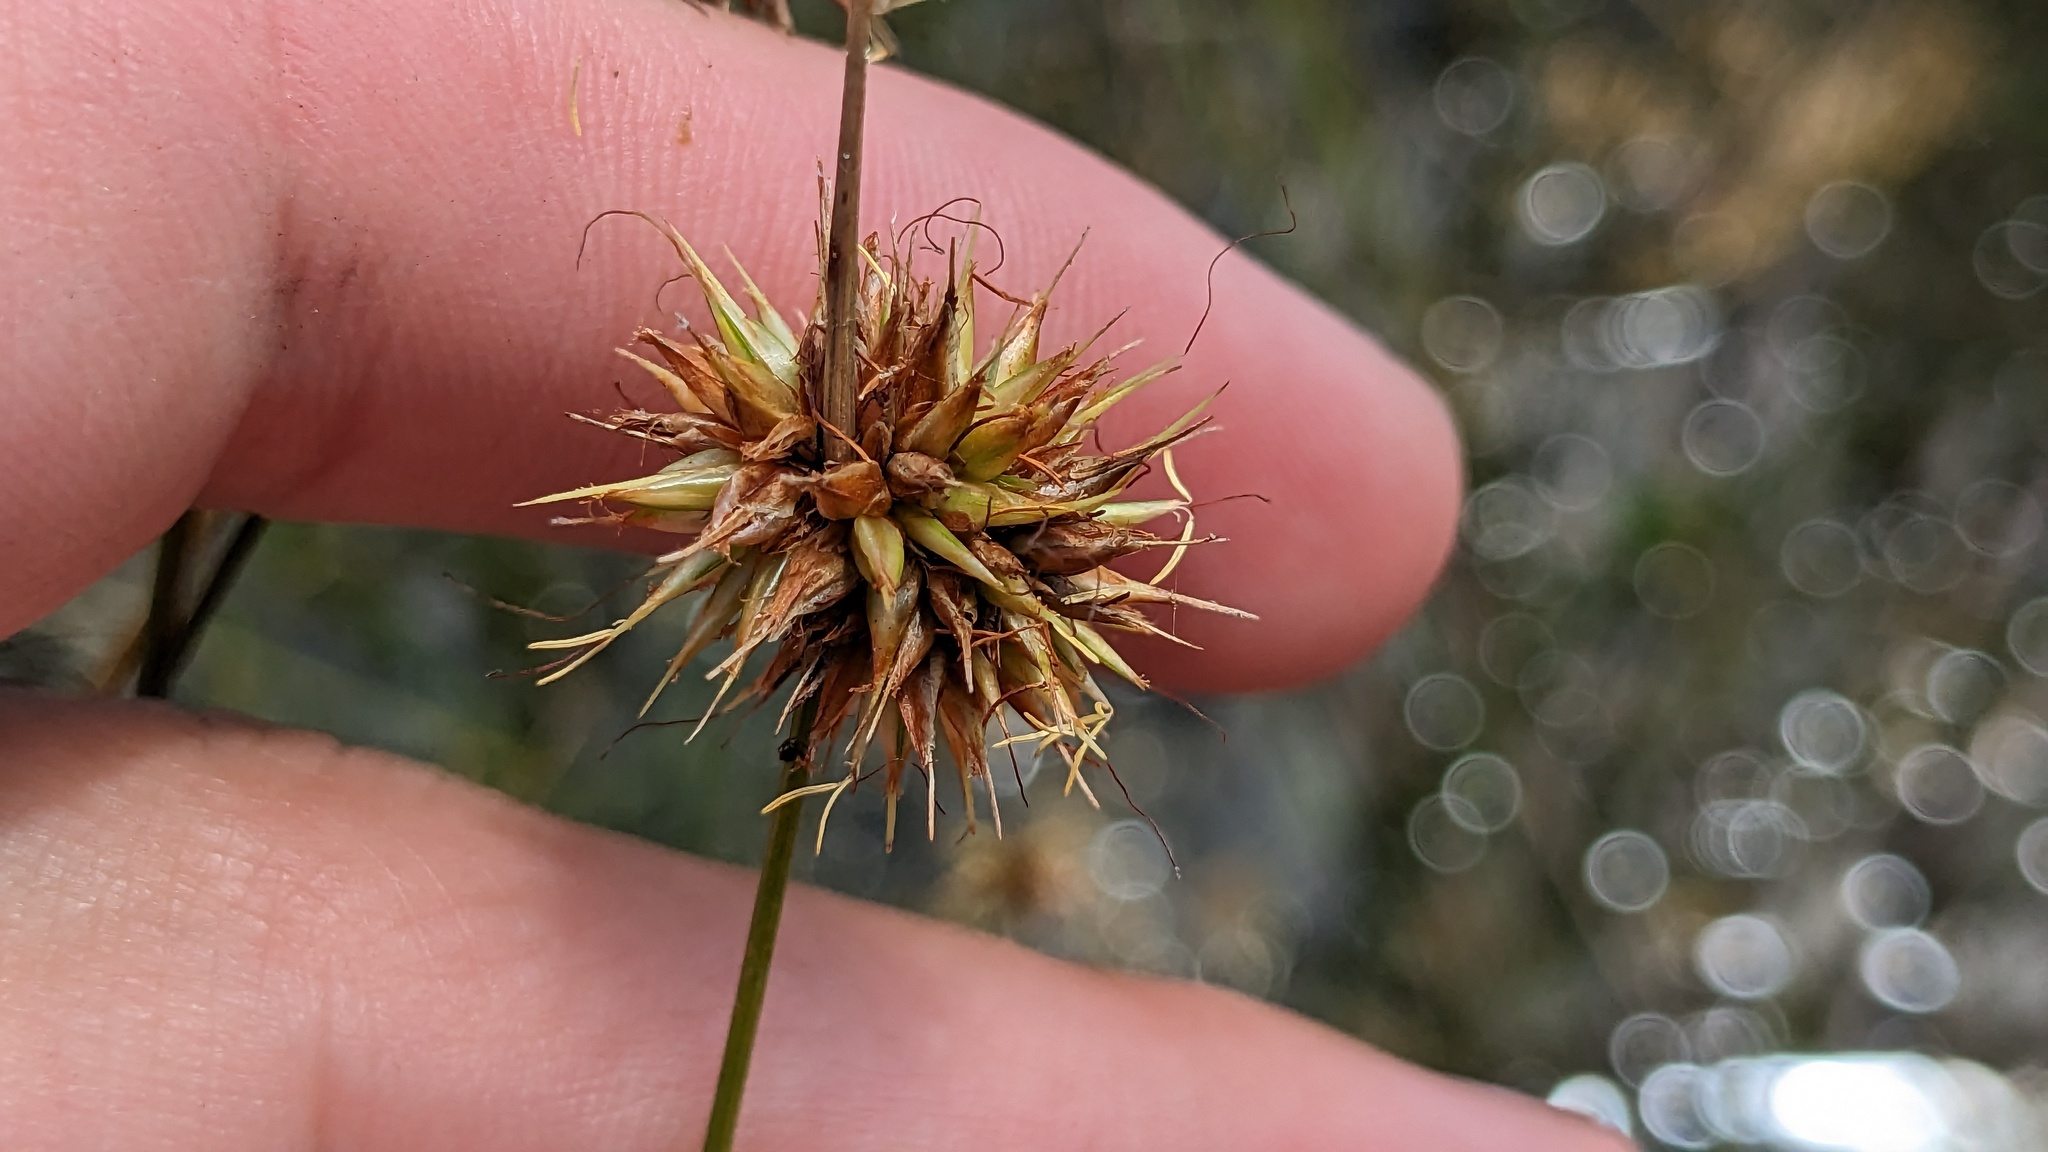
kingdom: Plantae
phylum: Tracheophyta
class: Liliopsida
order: Poales
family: Cyperaceae
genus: Rhynchospora
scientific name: Rhynchospora tracyi
